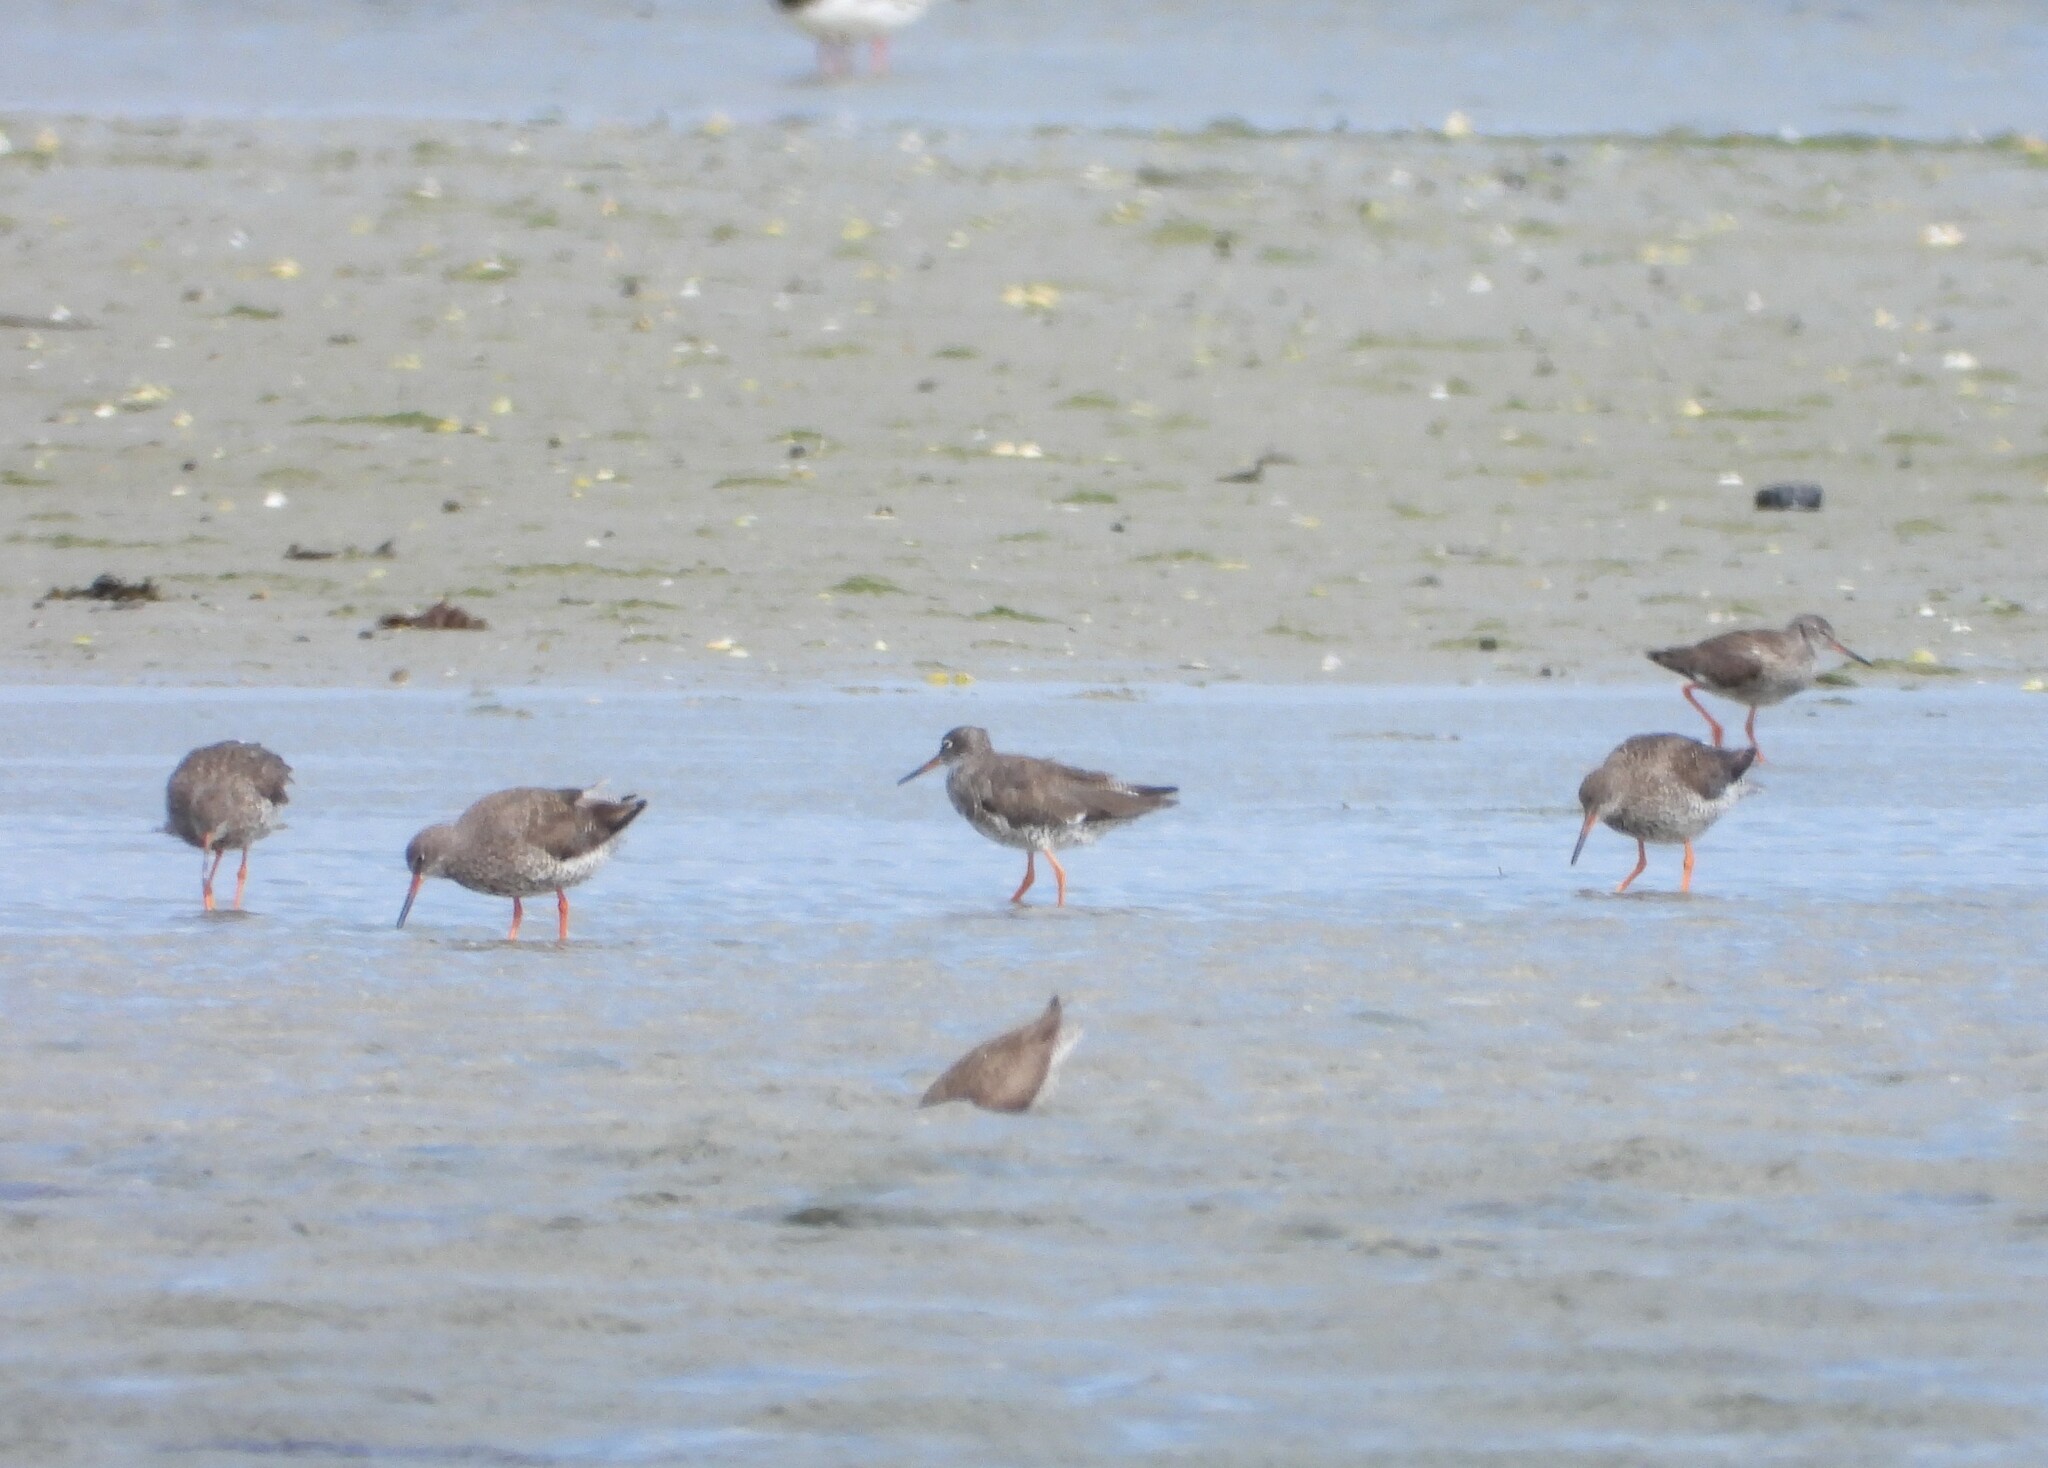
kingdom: Animalia
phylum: Chordata
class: Aves
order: Charadriiformes
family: Scolopacidae
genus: Tringa
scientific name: Tringa totanus
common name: Common redshank
